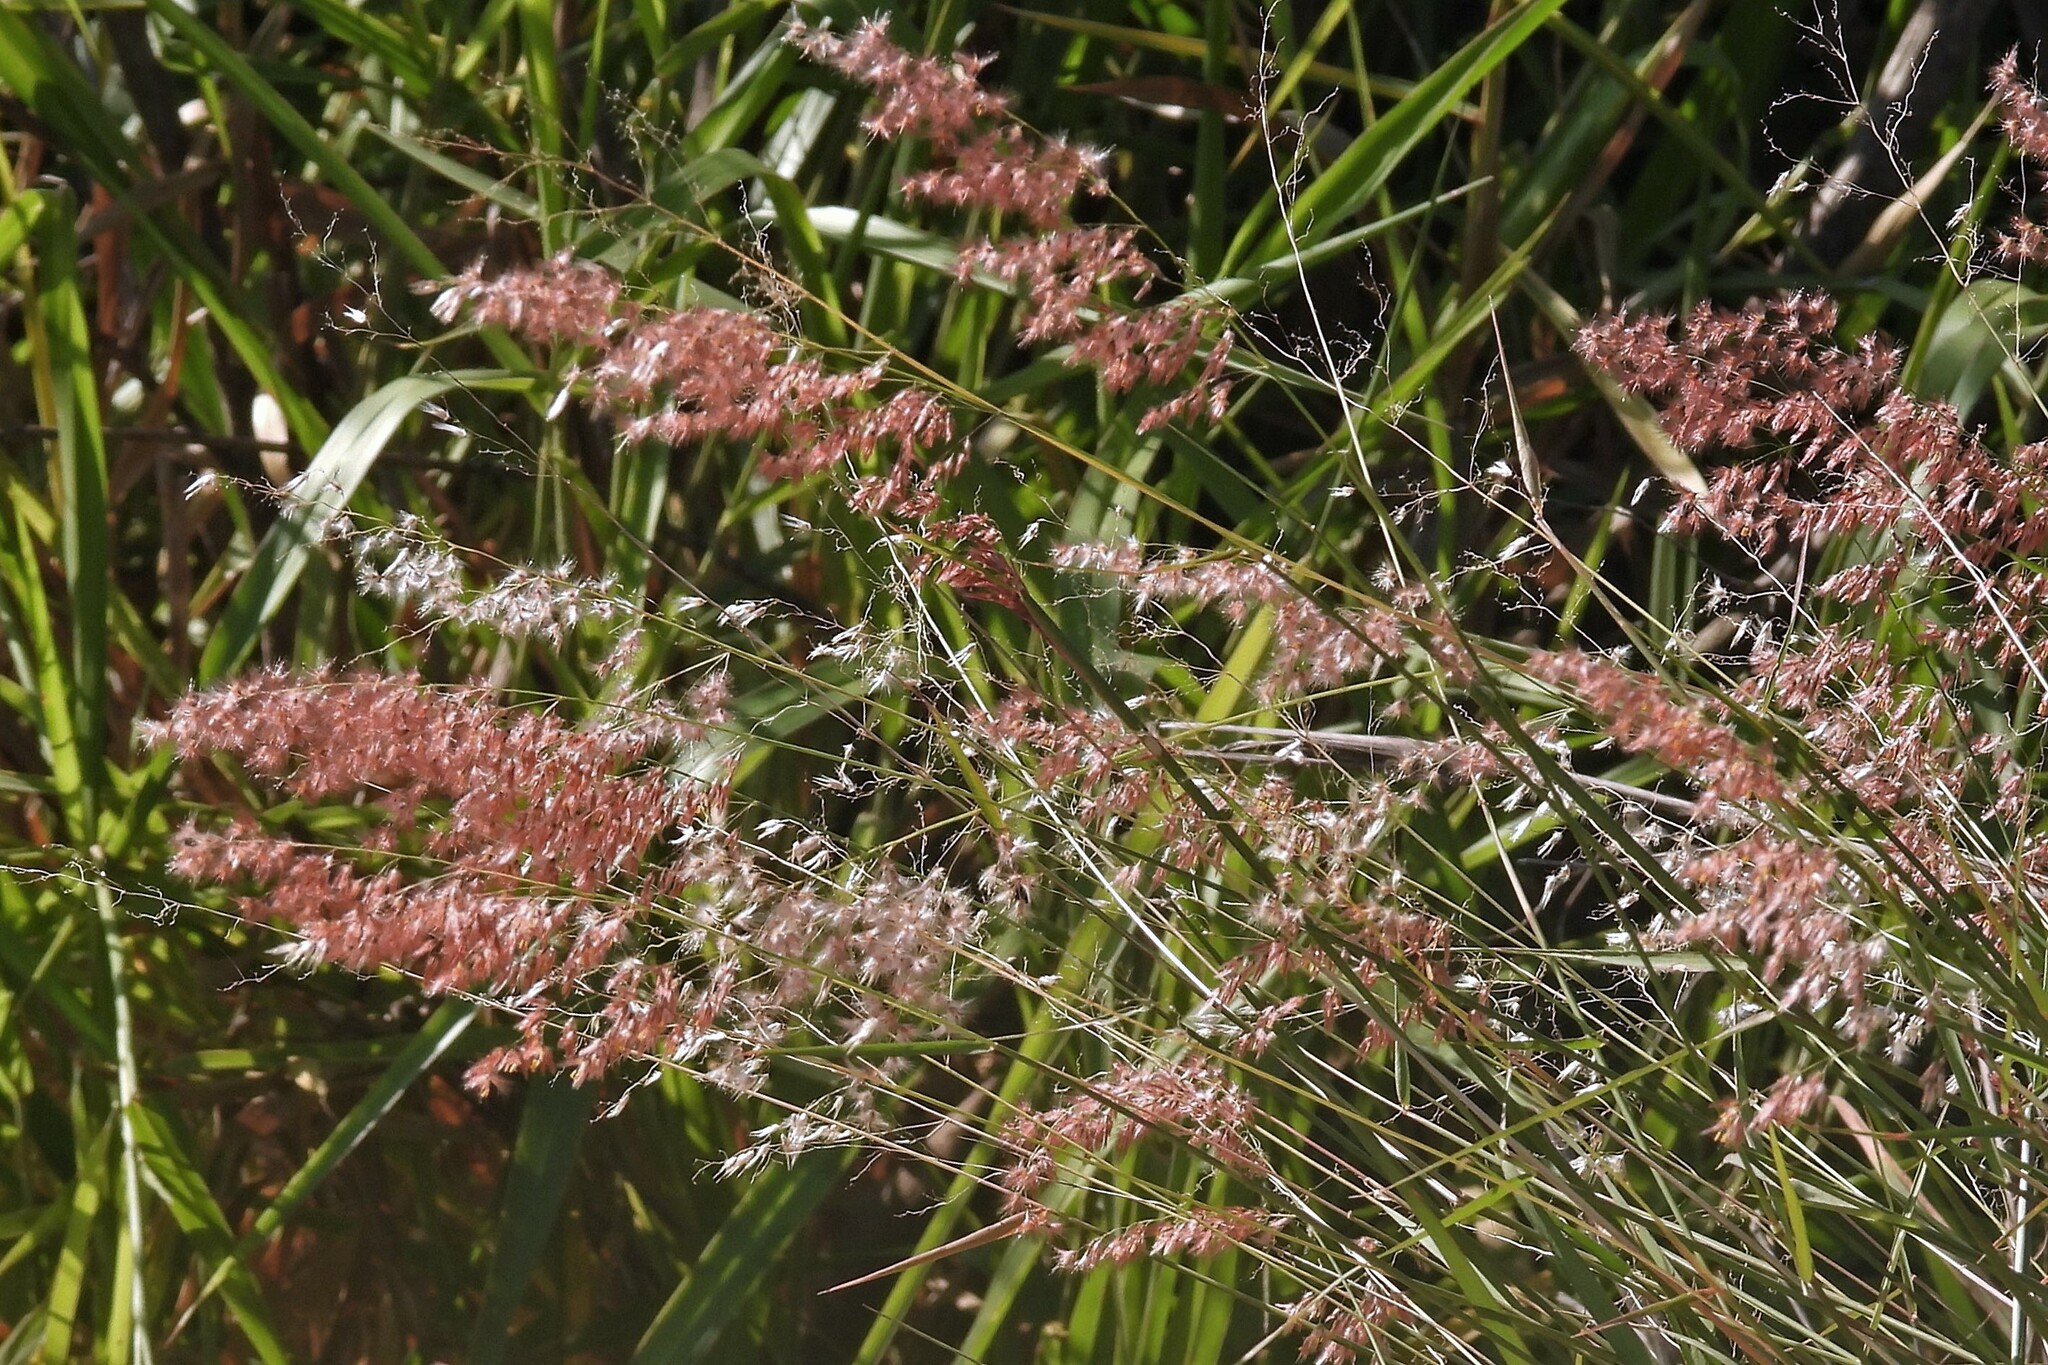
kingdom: Plantae
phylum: Tracheophyta
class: Liliopsida
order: Poales
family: Poaceae
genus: Melinis
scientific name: Melinis repens
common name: Rose natal grass
